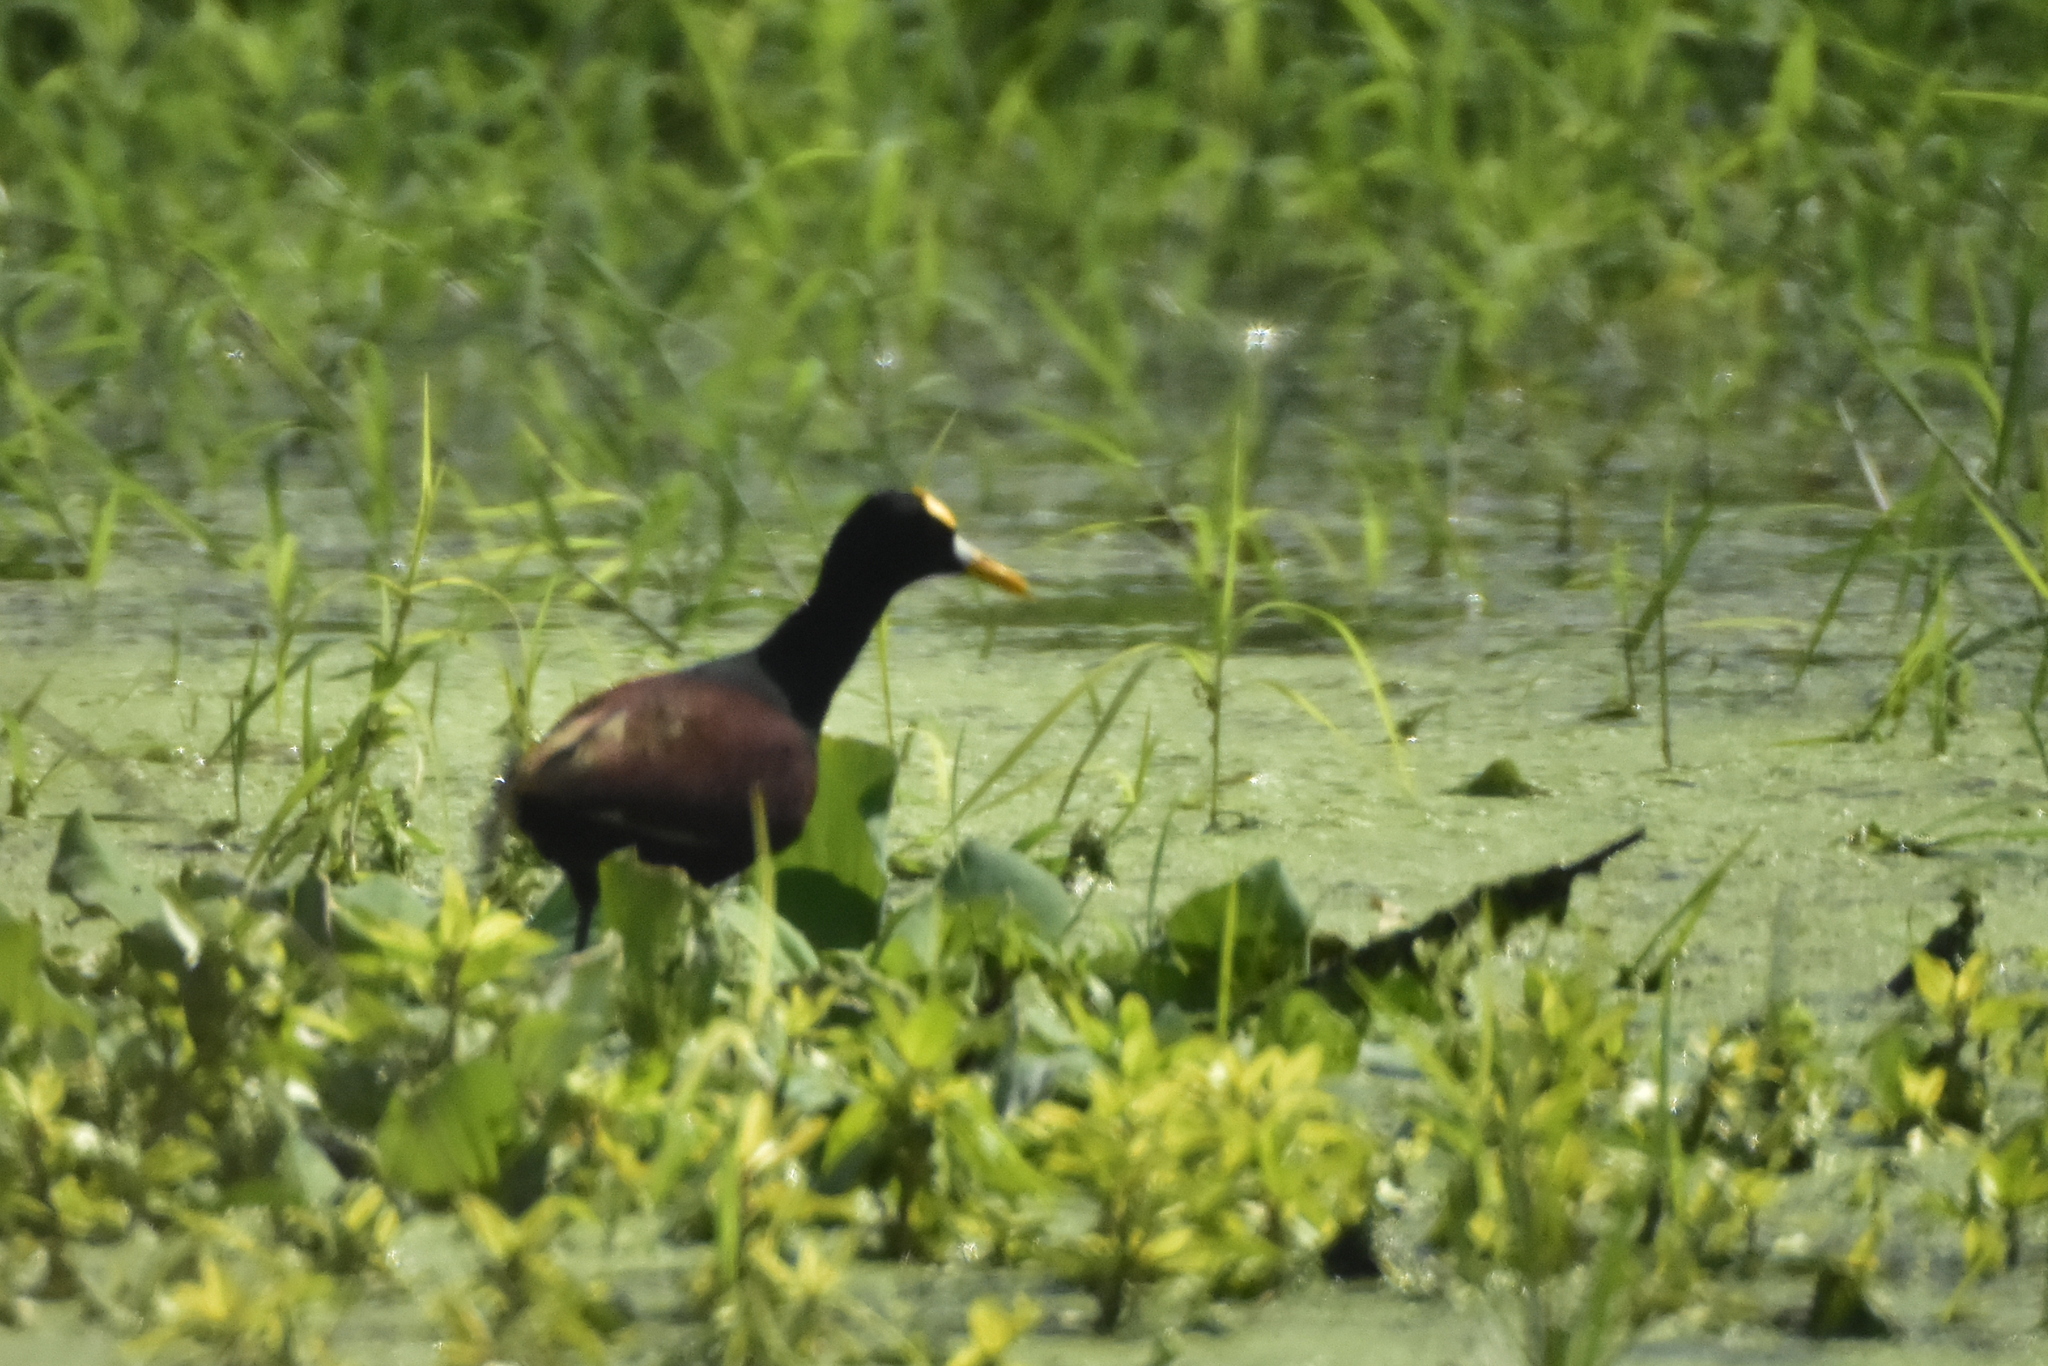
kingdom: Animalia
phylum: Chordata
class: Aves
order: Charadriiformes
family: Jacanidae
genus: Jacana
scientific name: Jacana spinosa
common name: Northern jacana
